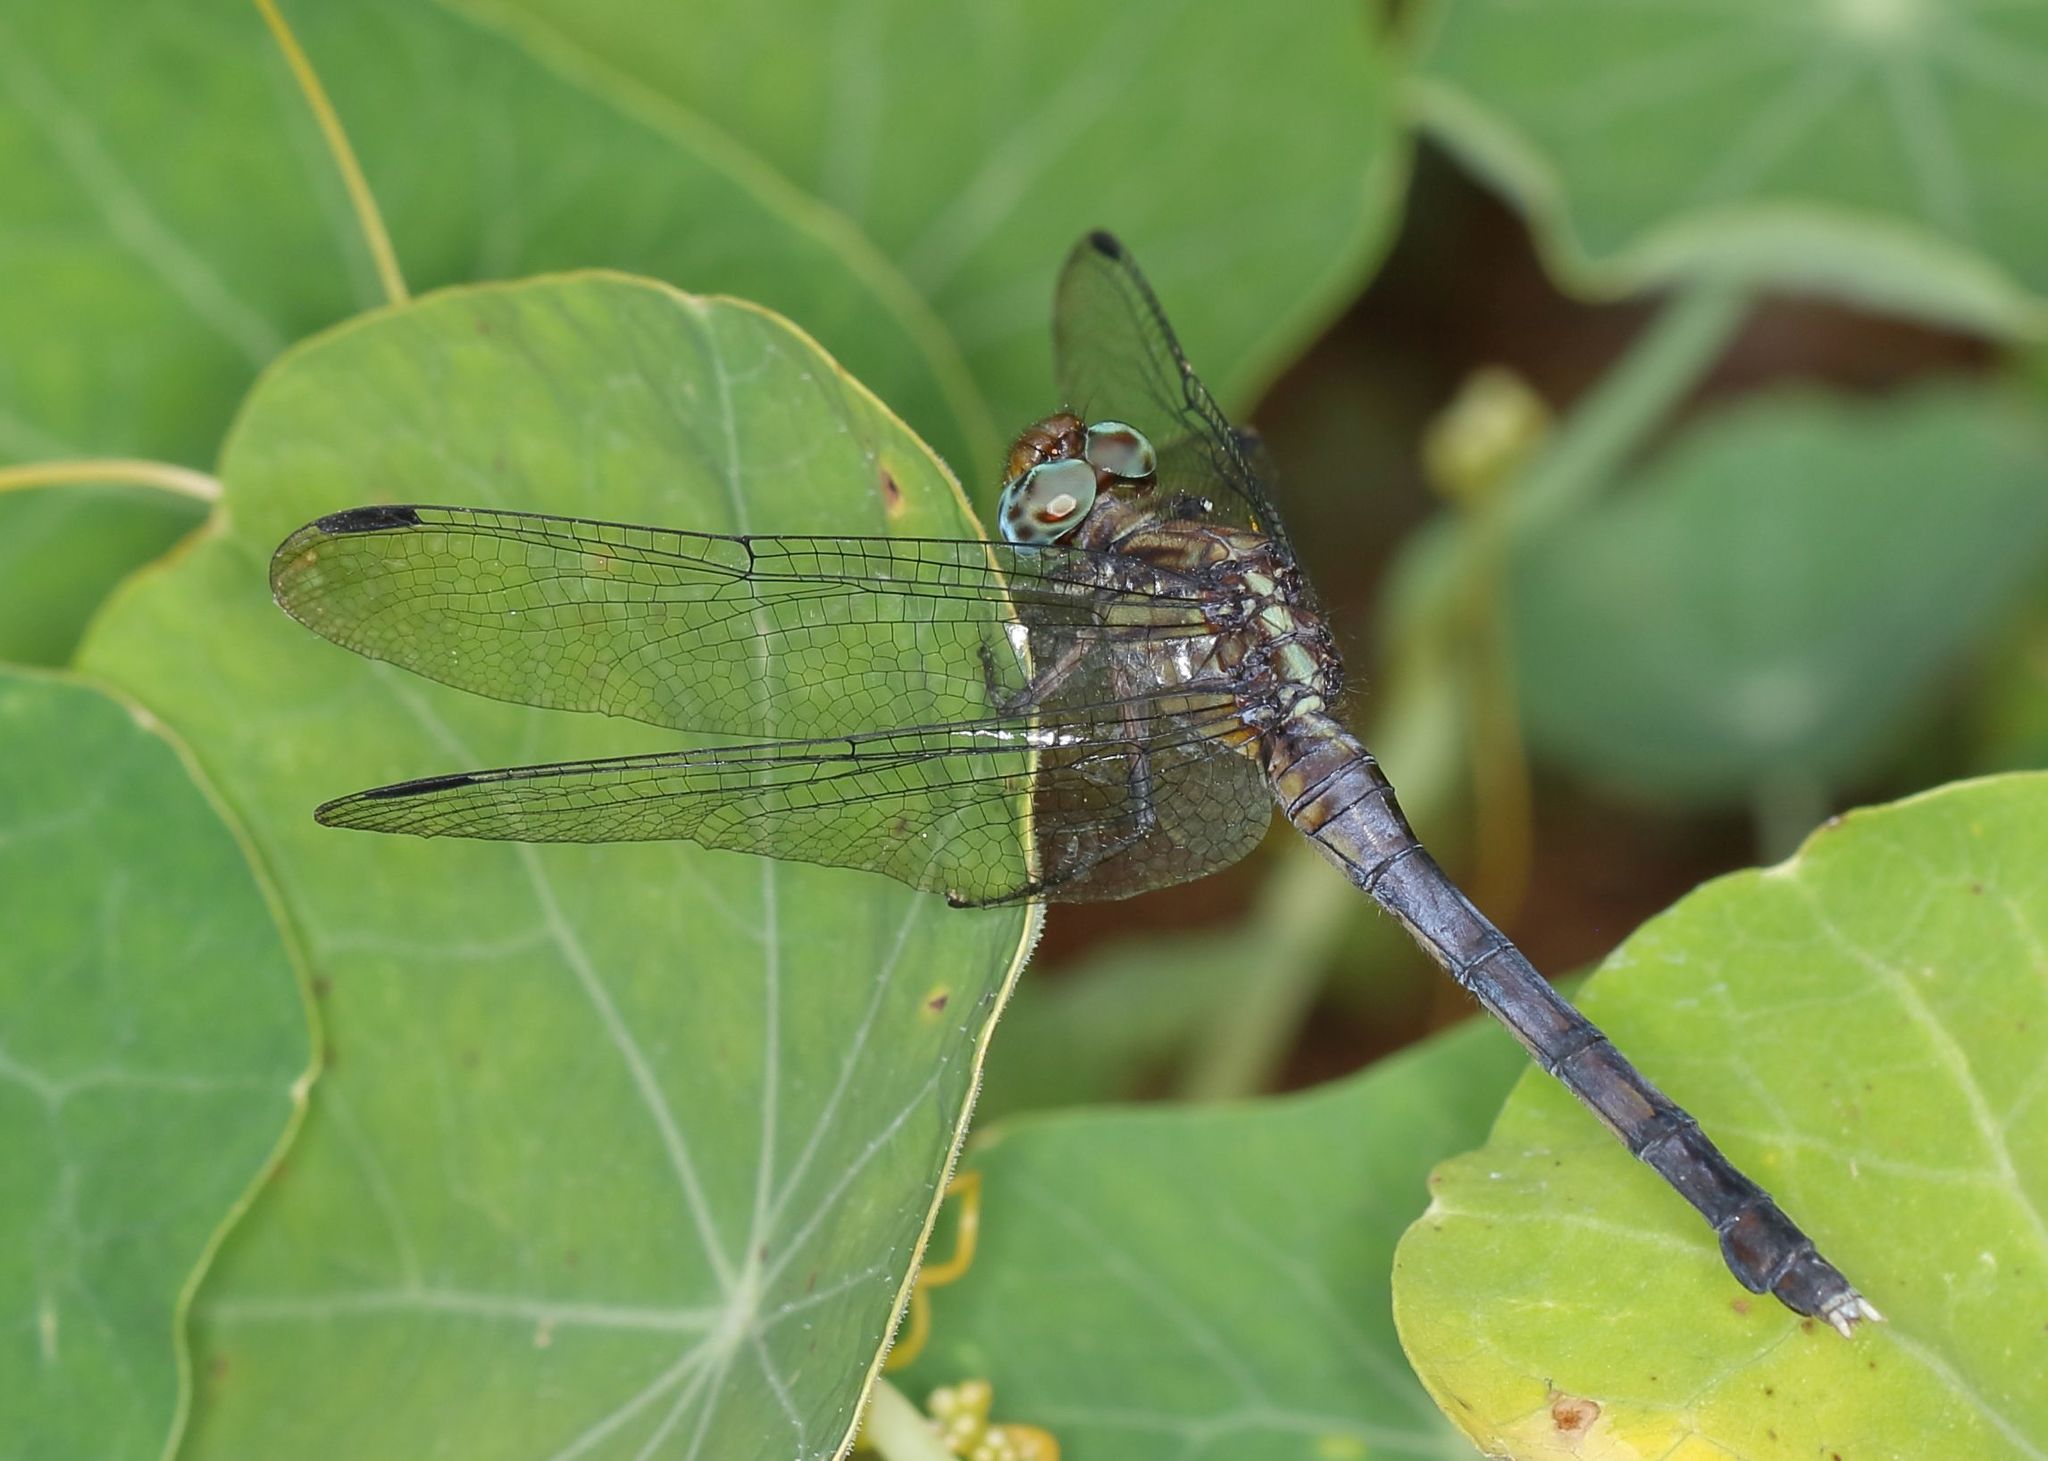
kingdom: Animalia
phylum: Arthropoda
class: Insecta
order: Odonata
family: Libellulidae
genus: Orthetrum
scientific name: Orthetrum julia
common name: Julia skimmer
